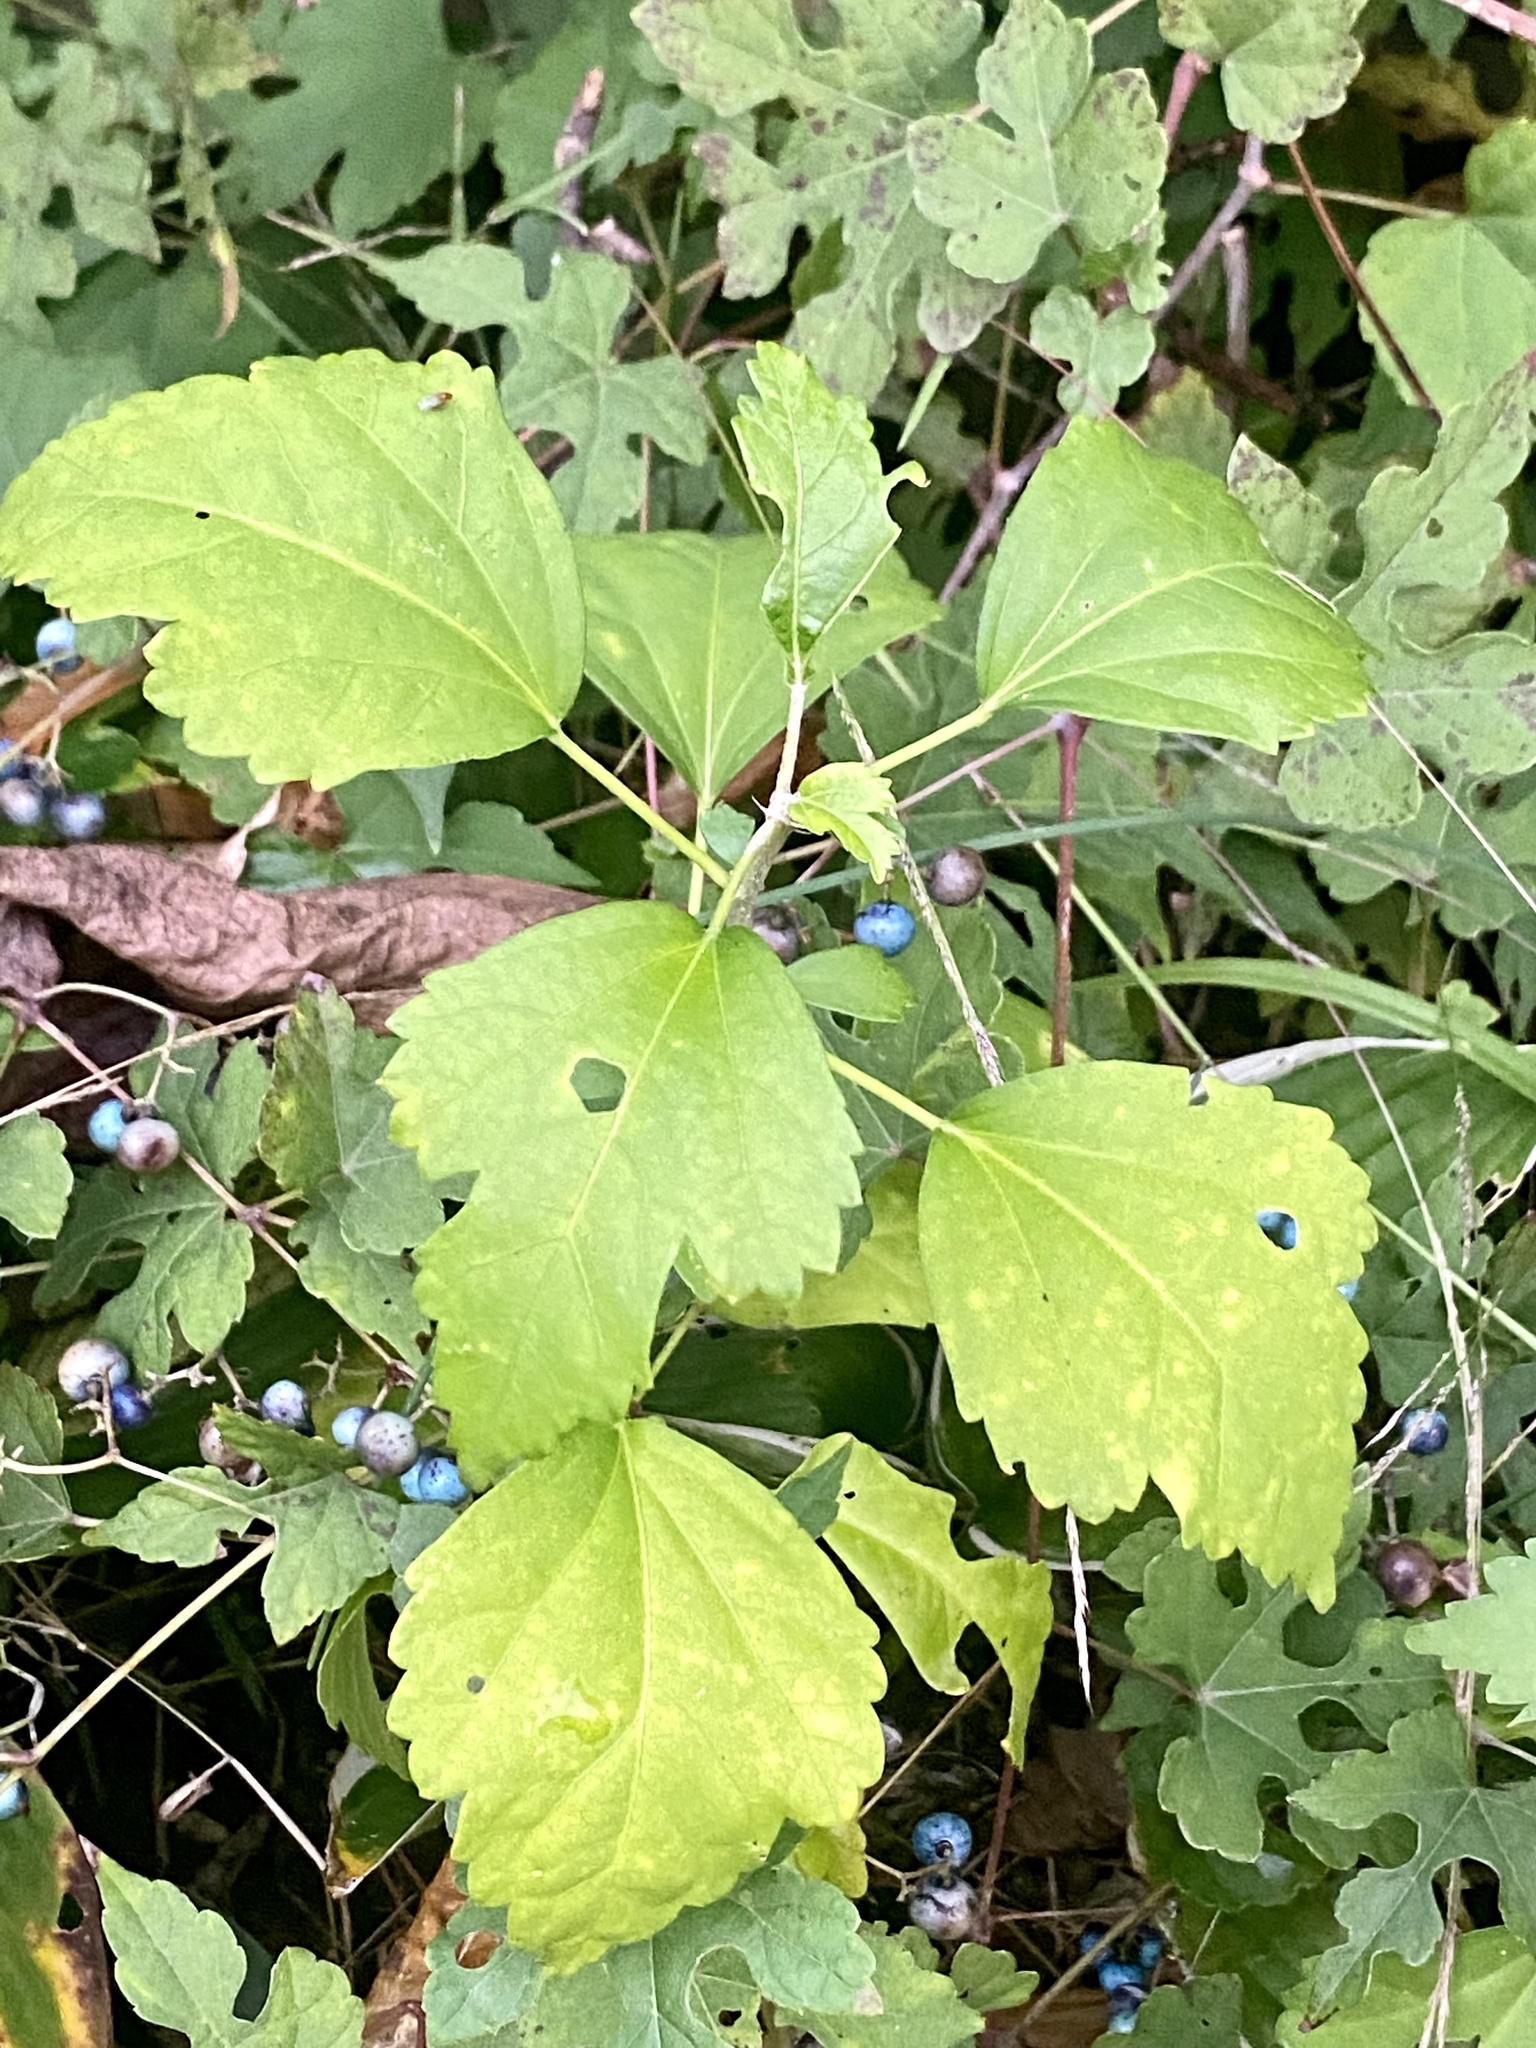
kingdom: Plantae
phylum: Tracheophyta
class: Magnoliopsida
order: Malvales
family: Malvaceae
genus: Hibiscus
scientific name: Hibiscus syriacus
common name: Syrian ketmia
